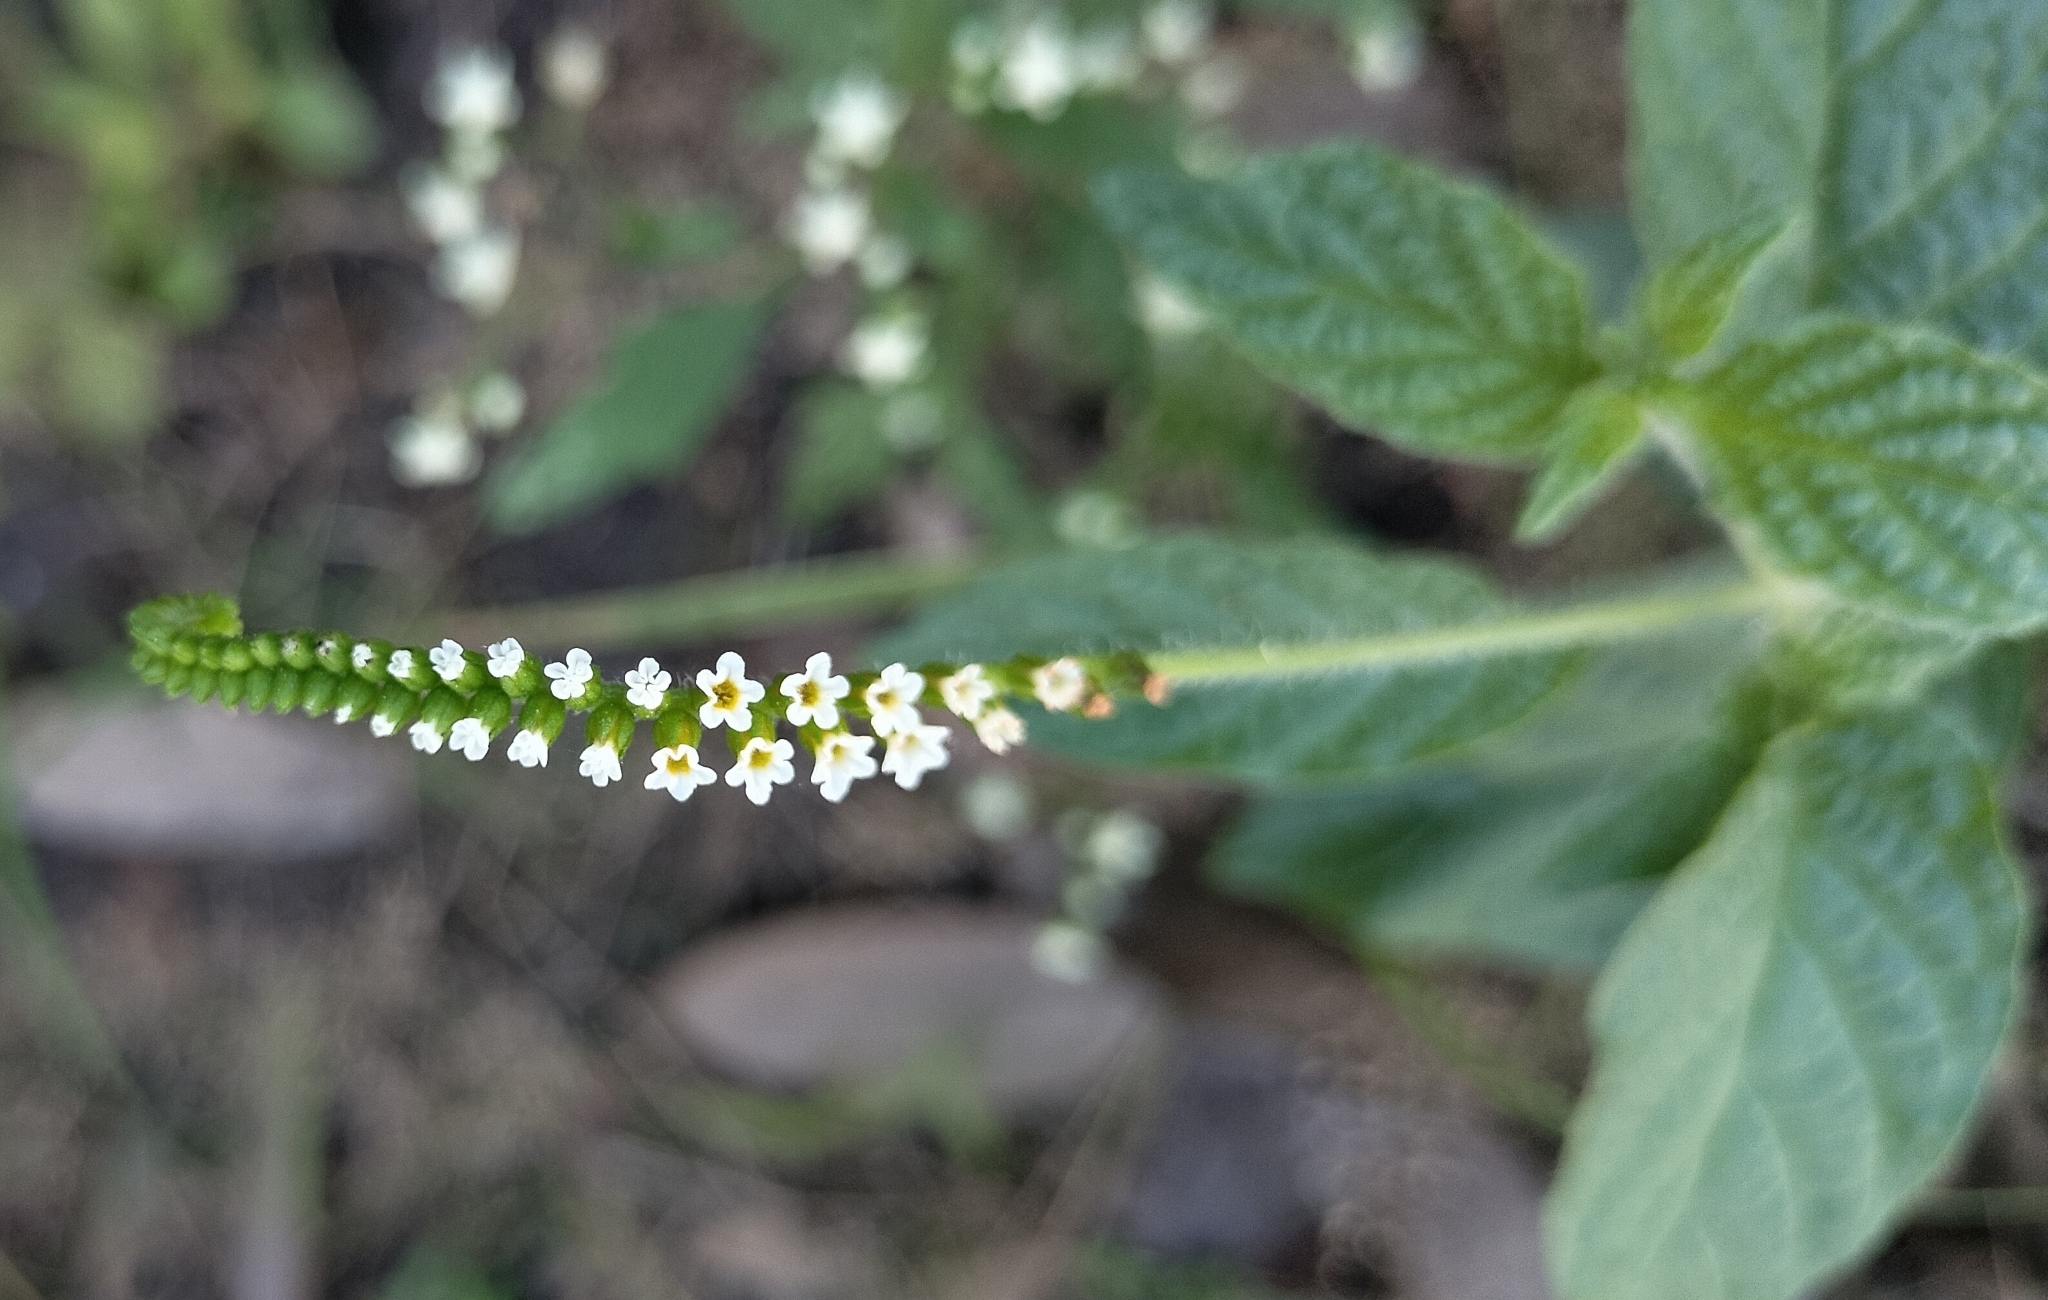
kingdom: Plantae
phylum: Tracheophyta
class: Magnoliopsida
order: Boraginales
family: Heliotropiaceae
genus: Heliotropium
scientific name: Heliotropium angiospermum
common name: Eye bright
